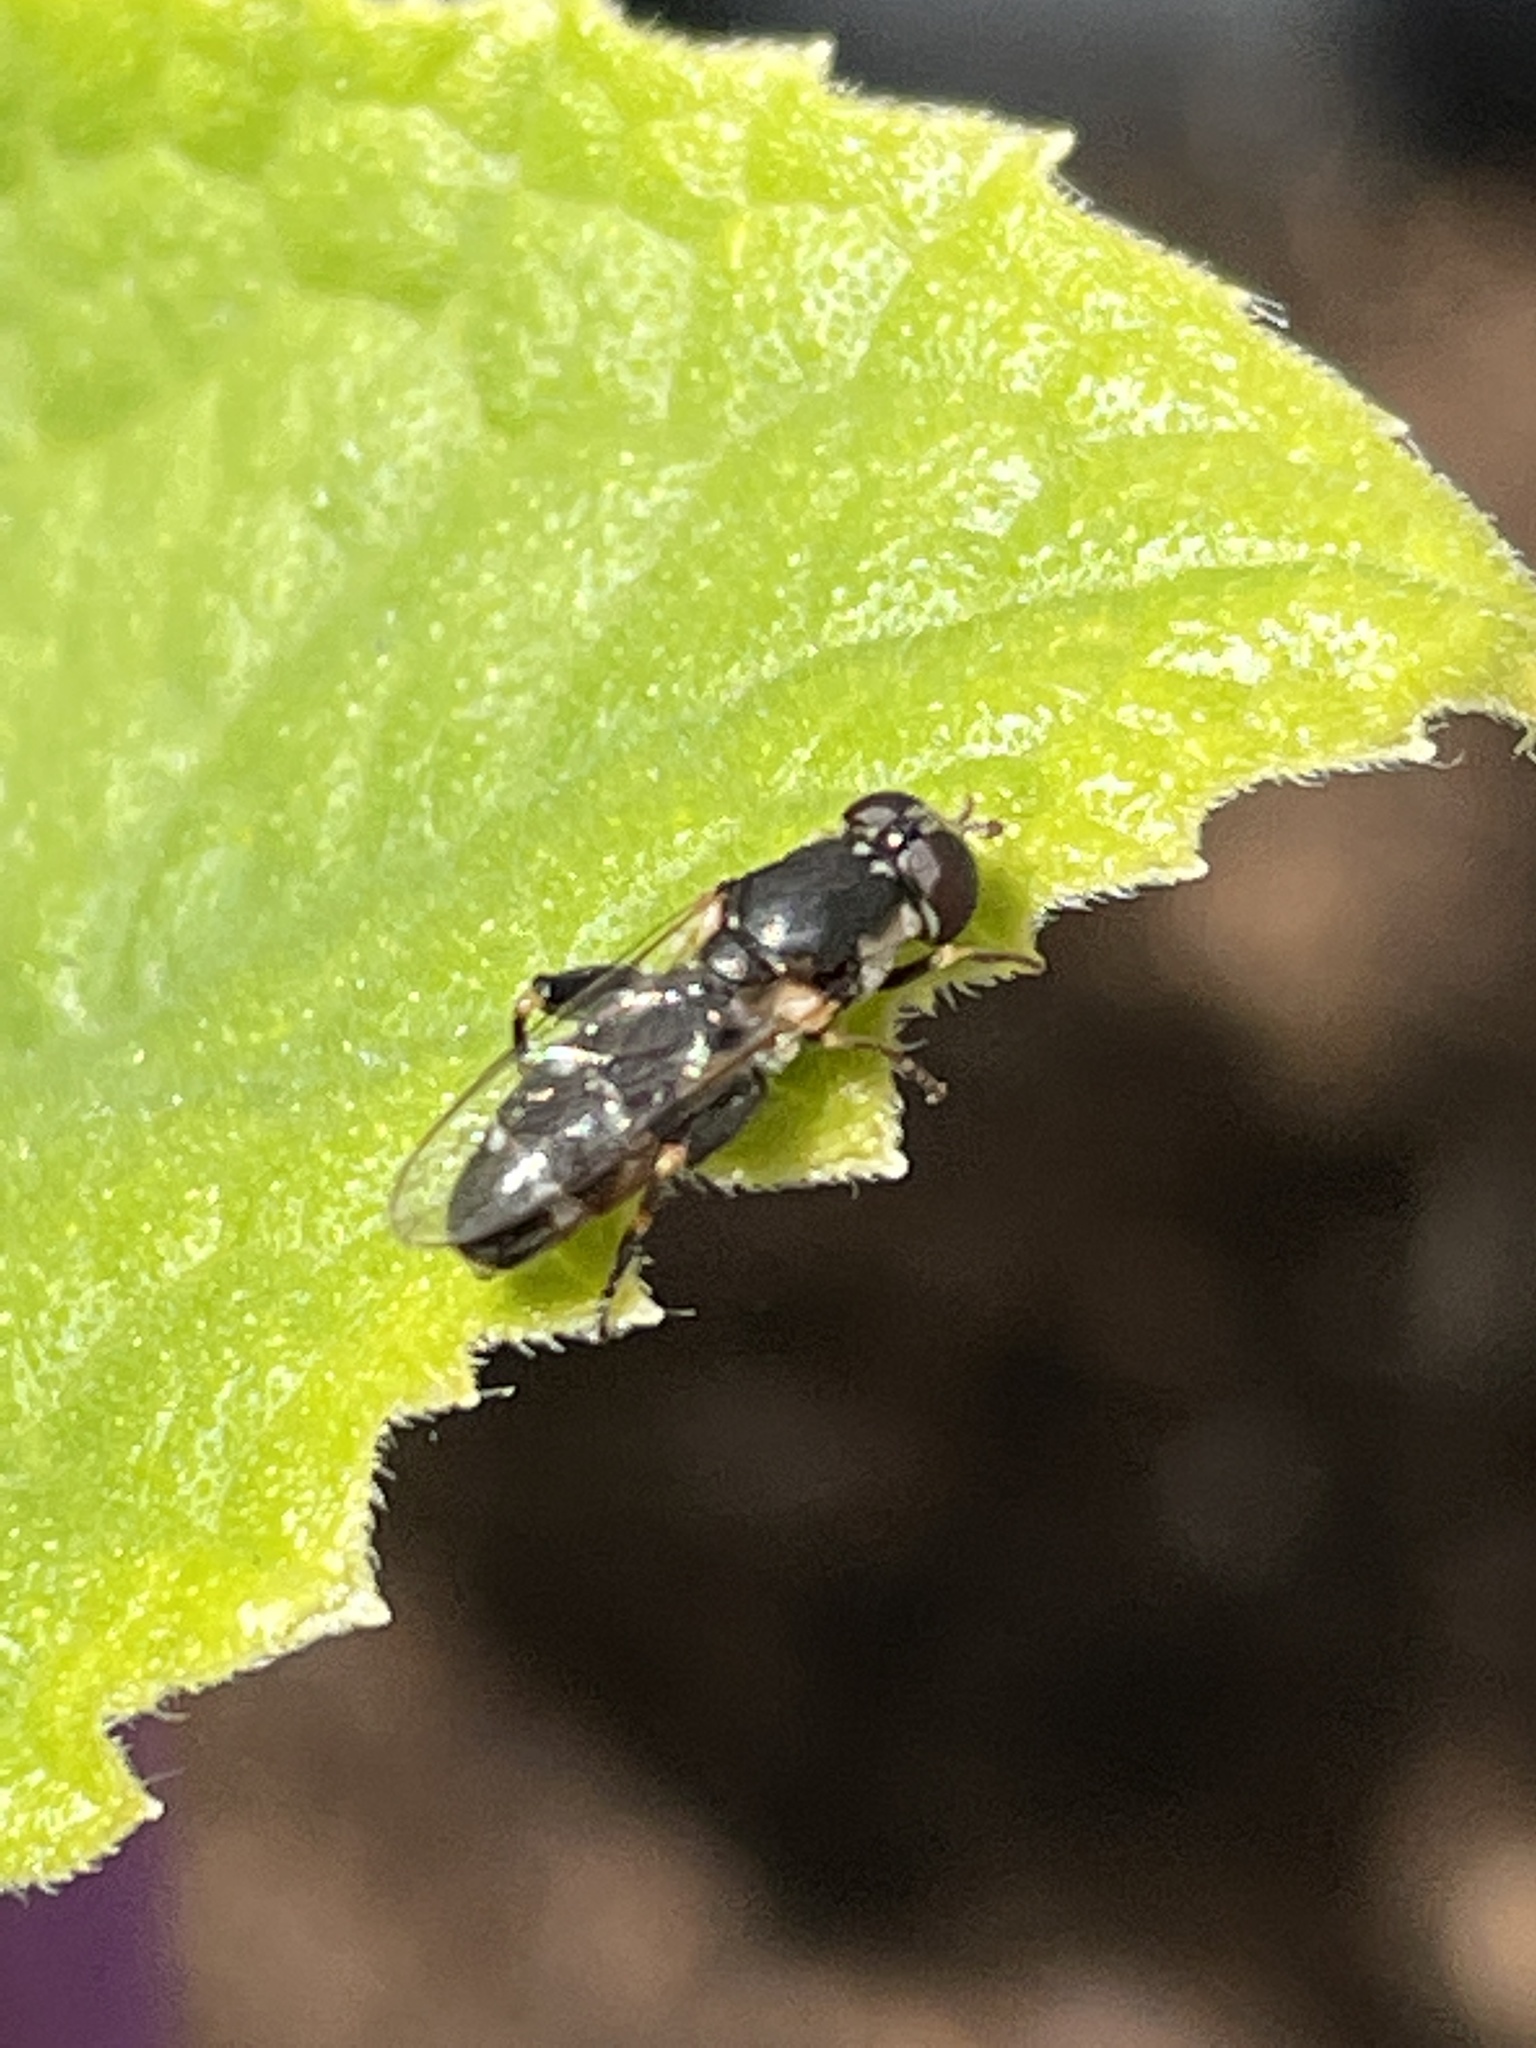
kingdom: Animalia
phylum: Arthropoda
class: Insecta
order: Diptera
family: Syrphidae
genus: Syritta
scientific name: Syritta pipiens
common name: Hover fly
